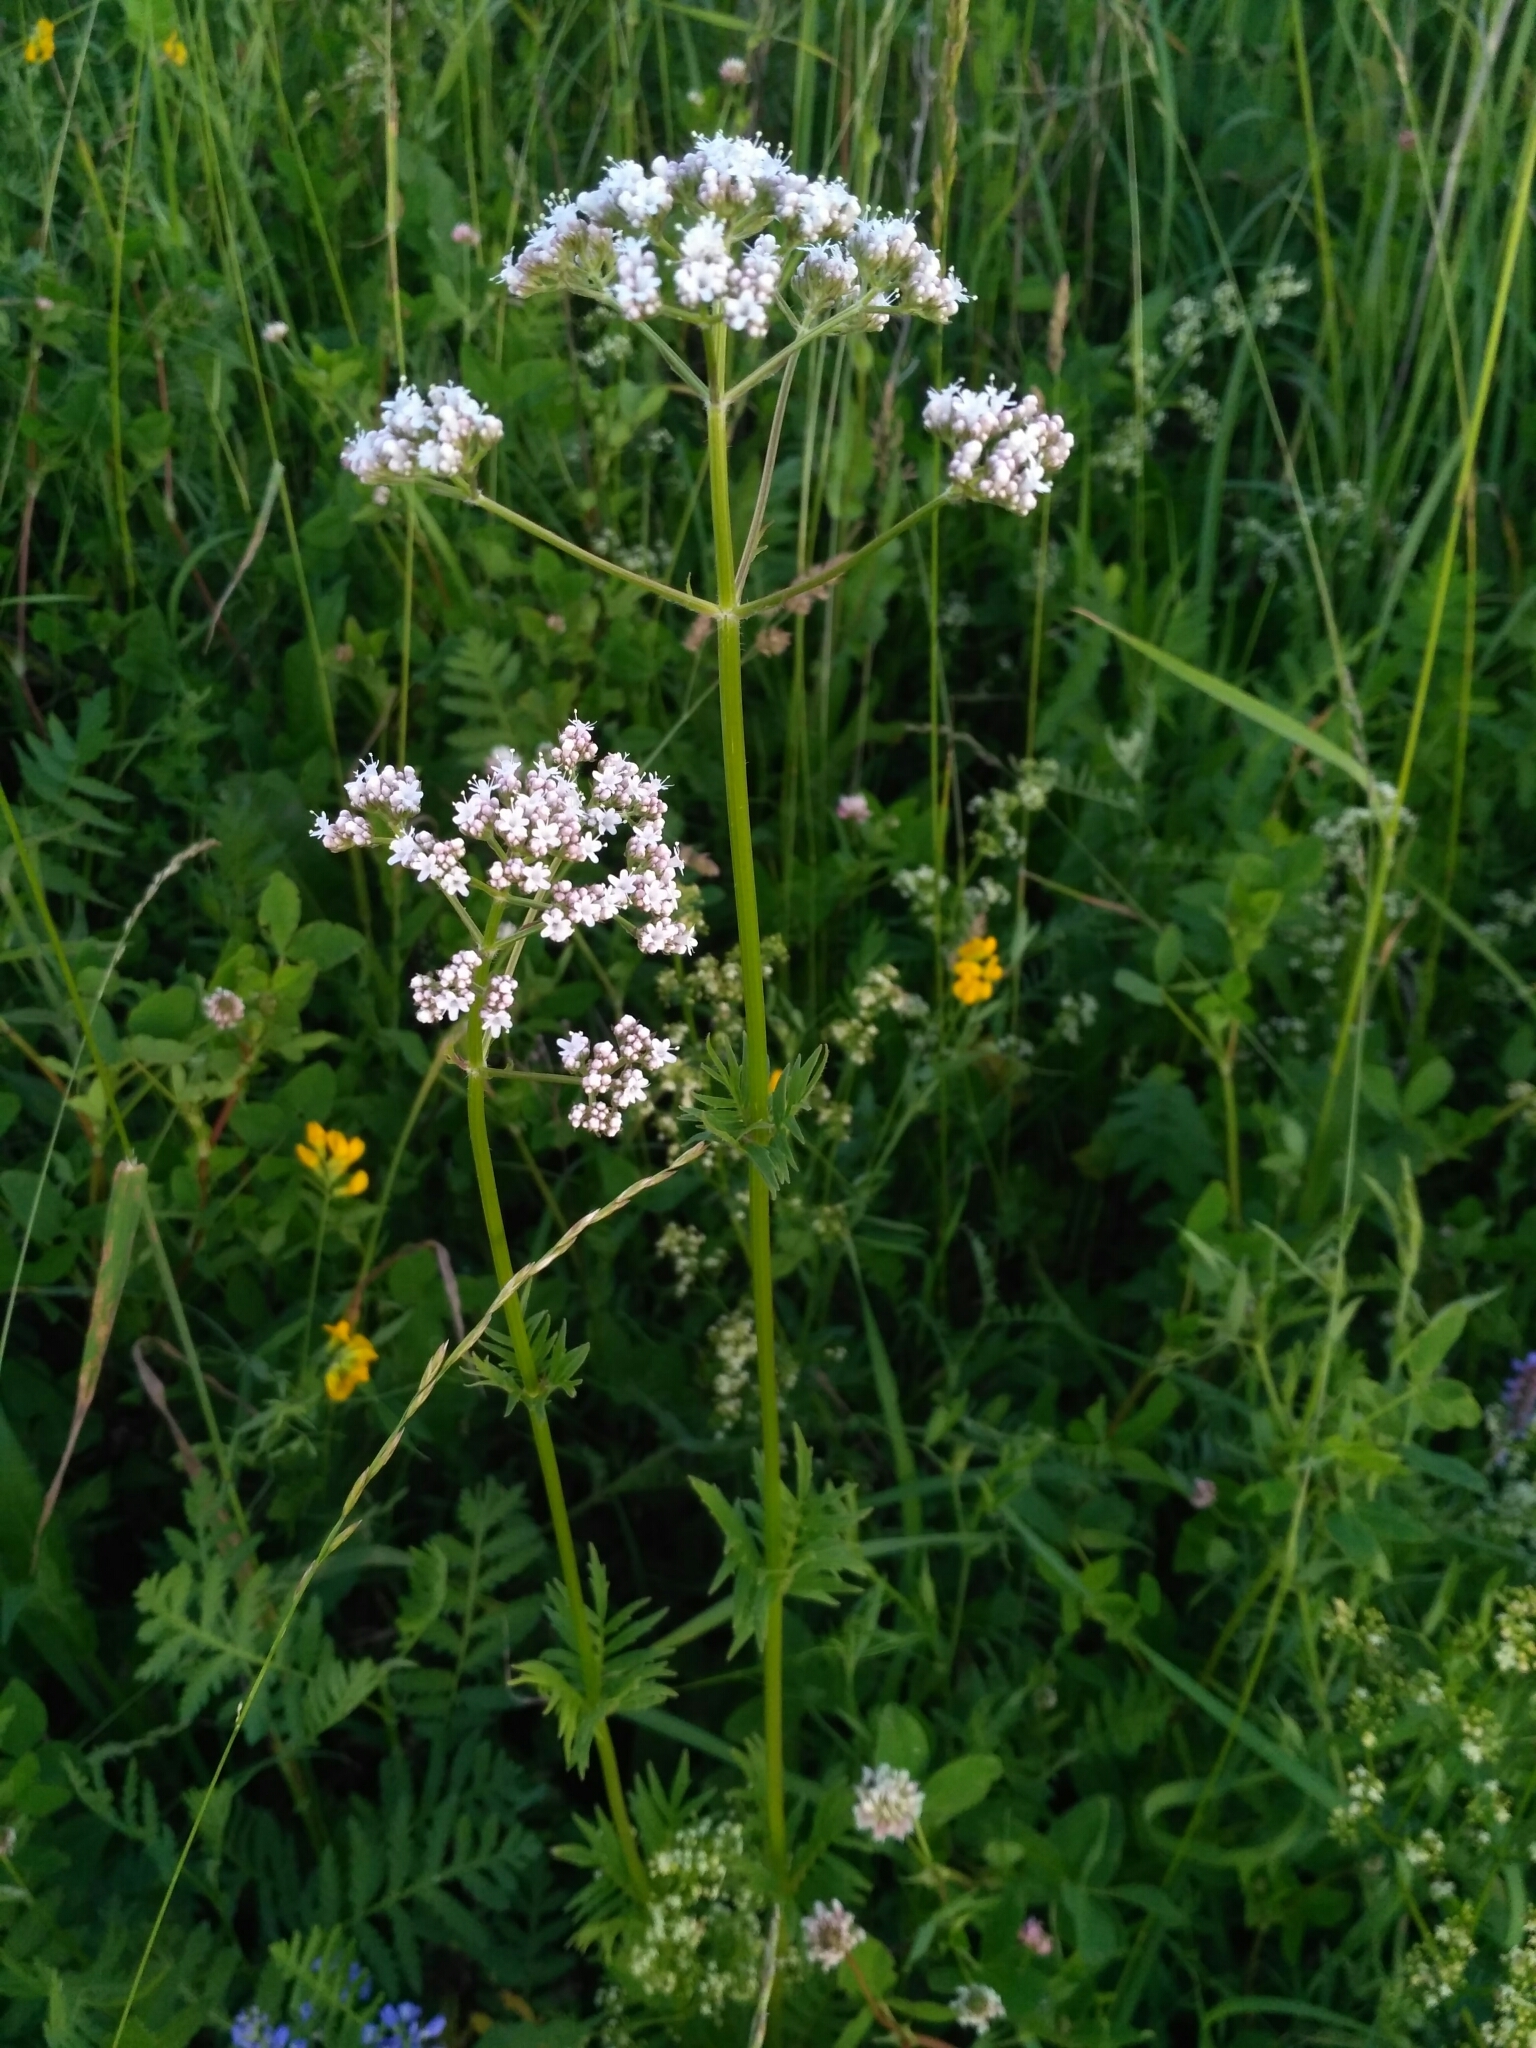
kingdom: Plantae
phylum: Tracheophyta
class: Magnoliopsida
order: Dipsacales
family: Caprifoliaceae
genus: Valeriana
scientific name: Valeriana officinalis
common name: Common valerian
